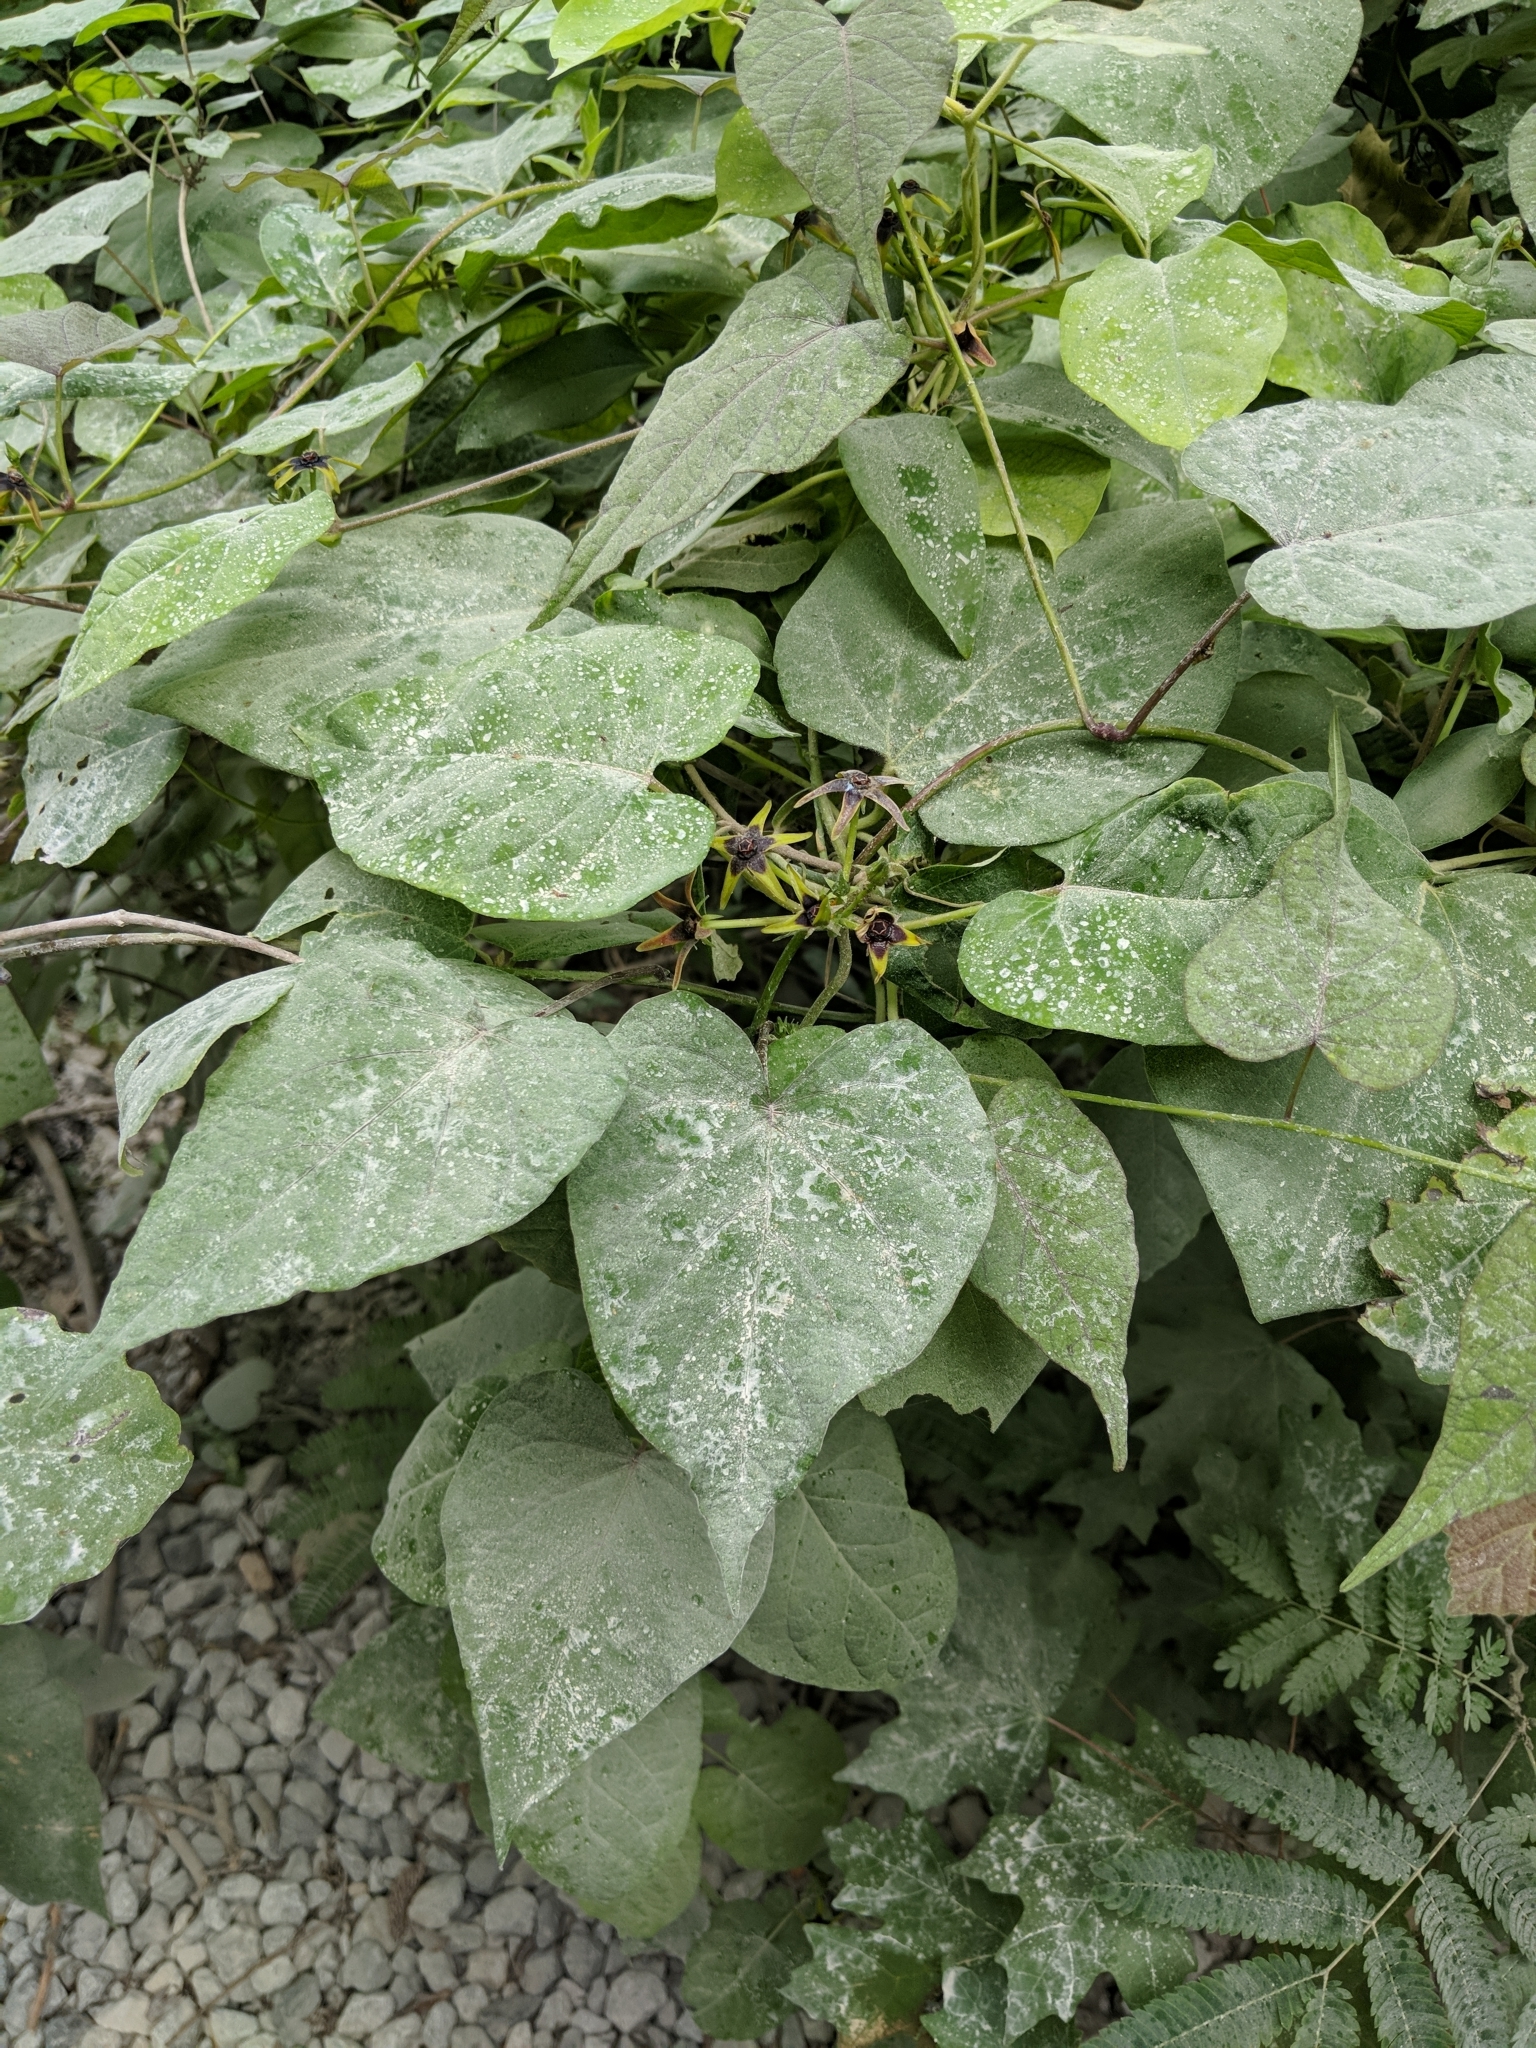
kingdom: Plantae
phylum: Tracheophyta
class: Magnoliopsida
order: Gentianales
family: Apocynaceae
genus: Gonolobus
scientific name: Gonolobus suberosus
